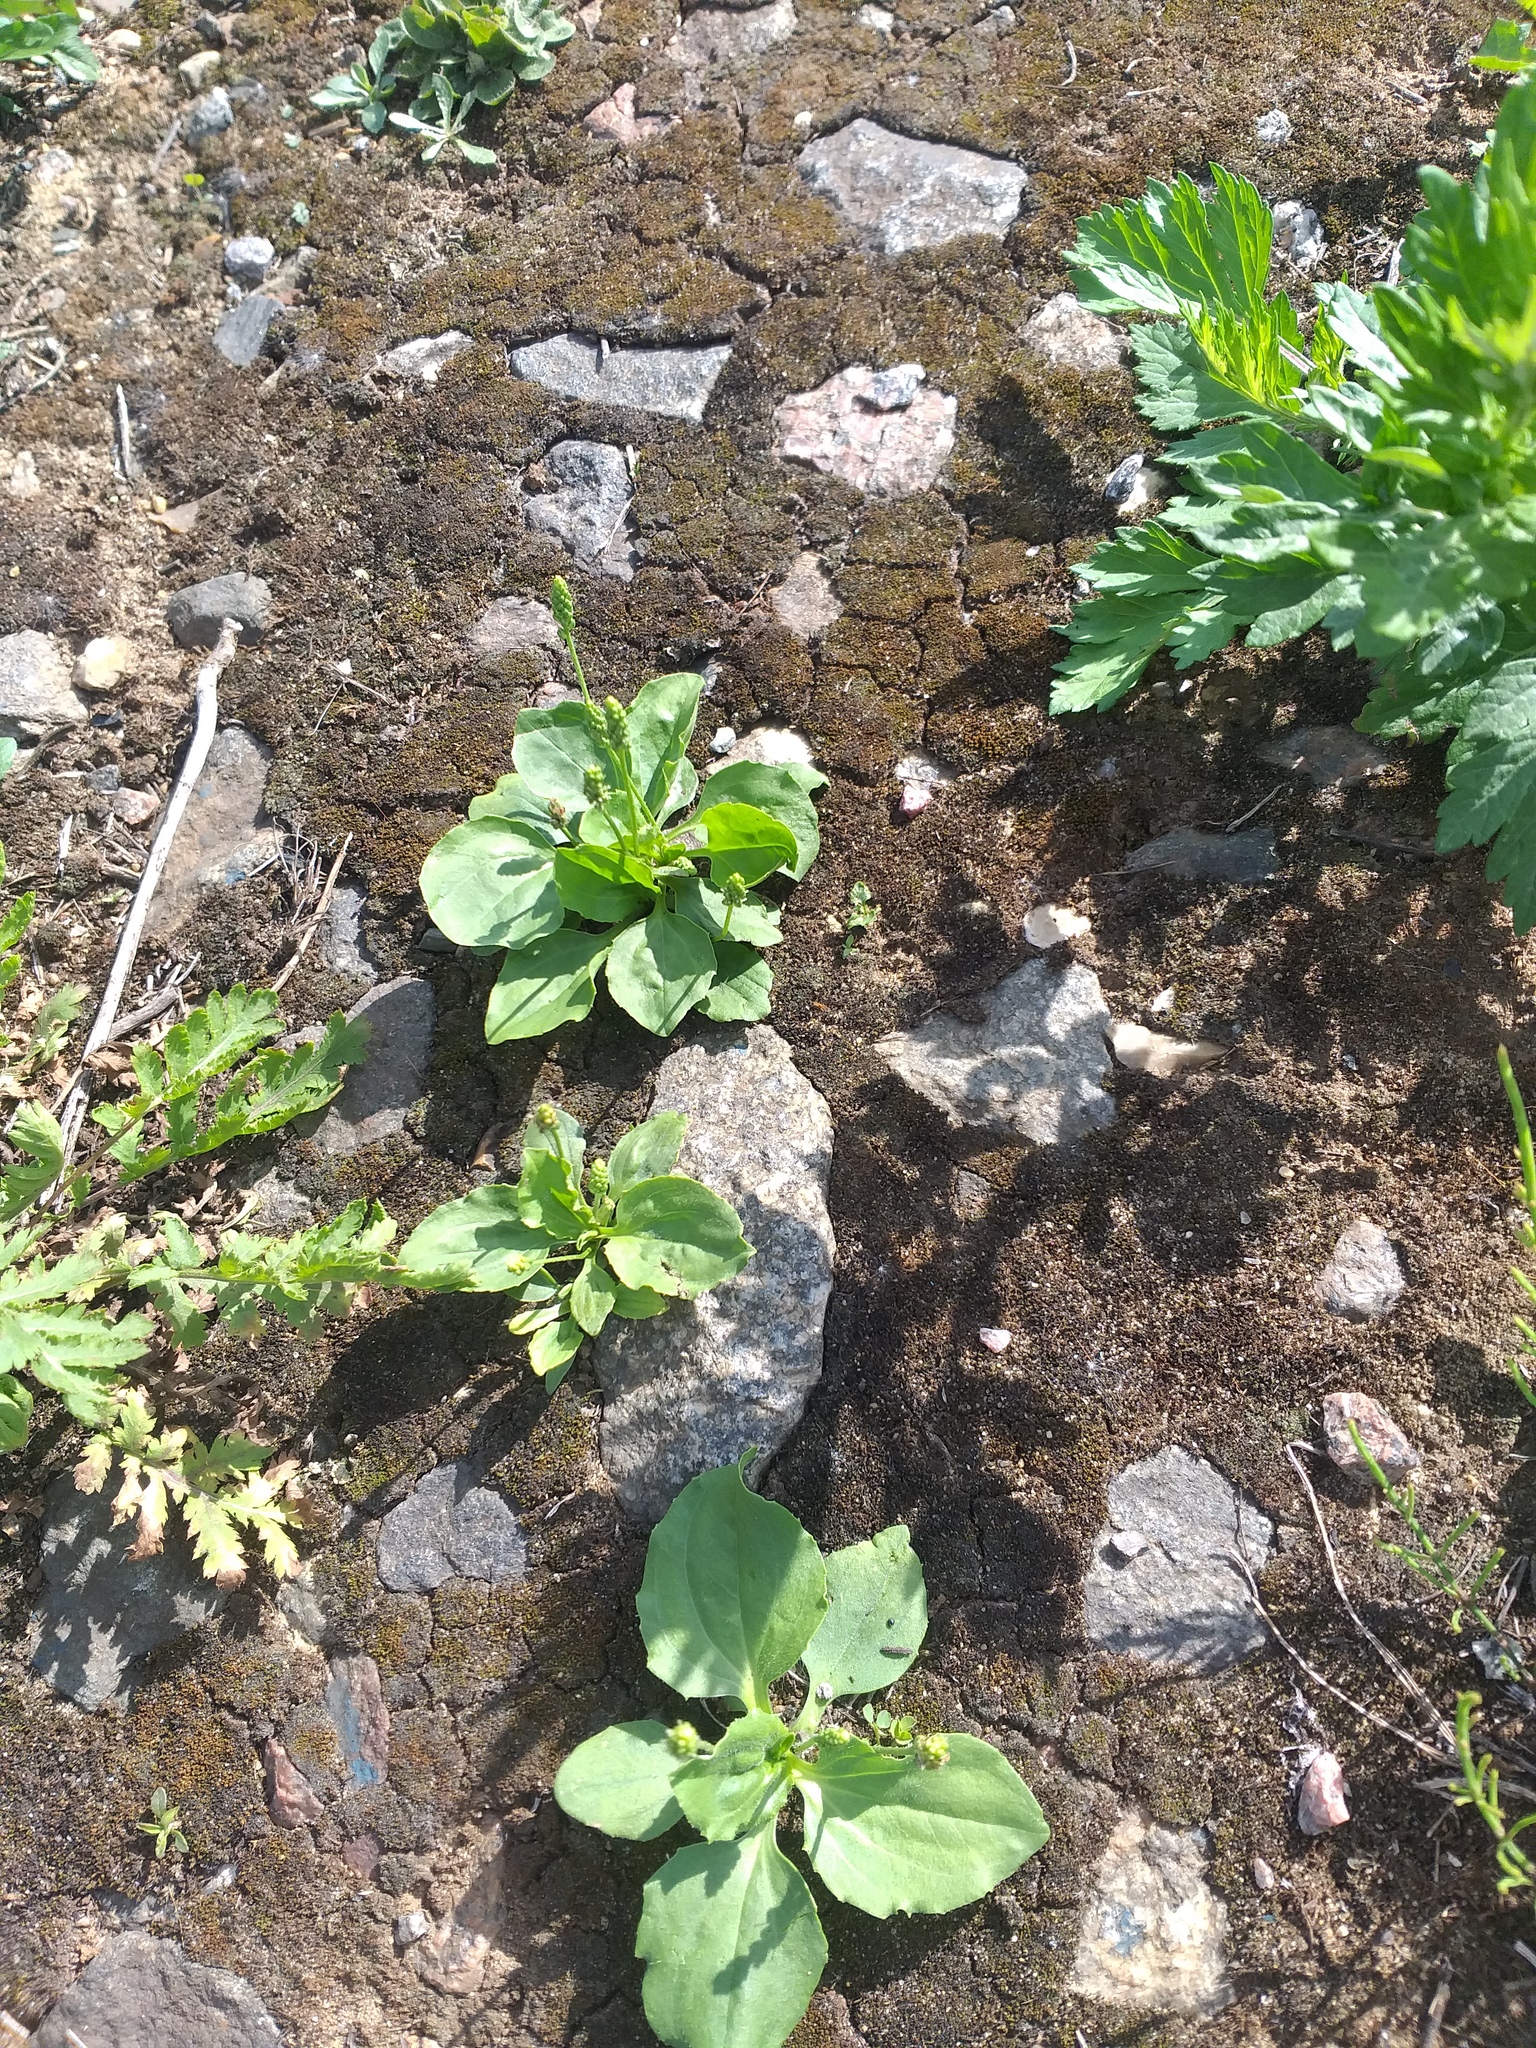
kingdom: Plantae
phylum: Tracheophyta
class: Magnoliopsida
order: Lamiales
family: Plantaginaceae
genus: Plantago
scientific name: Plantago uliginosa
